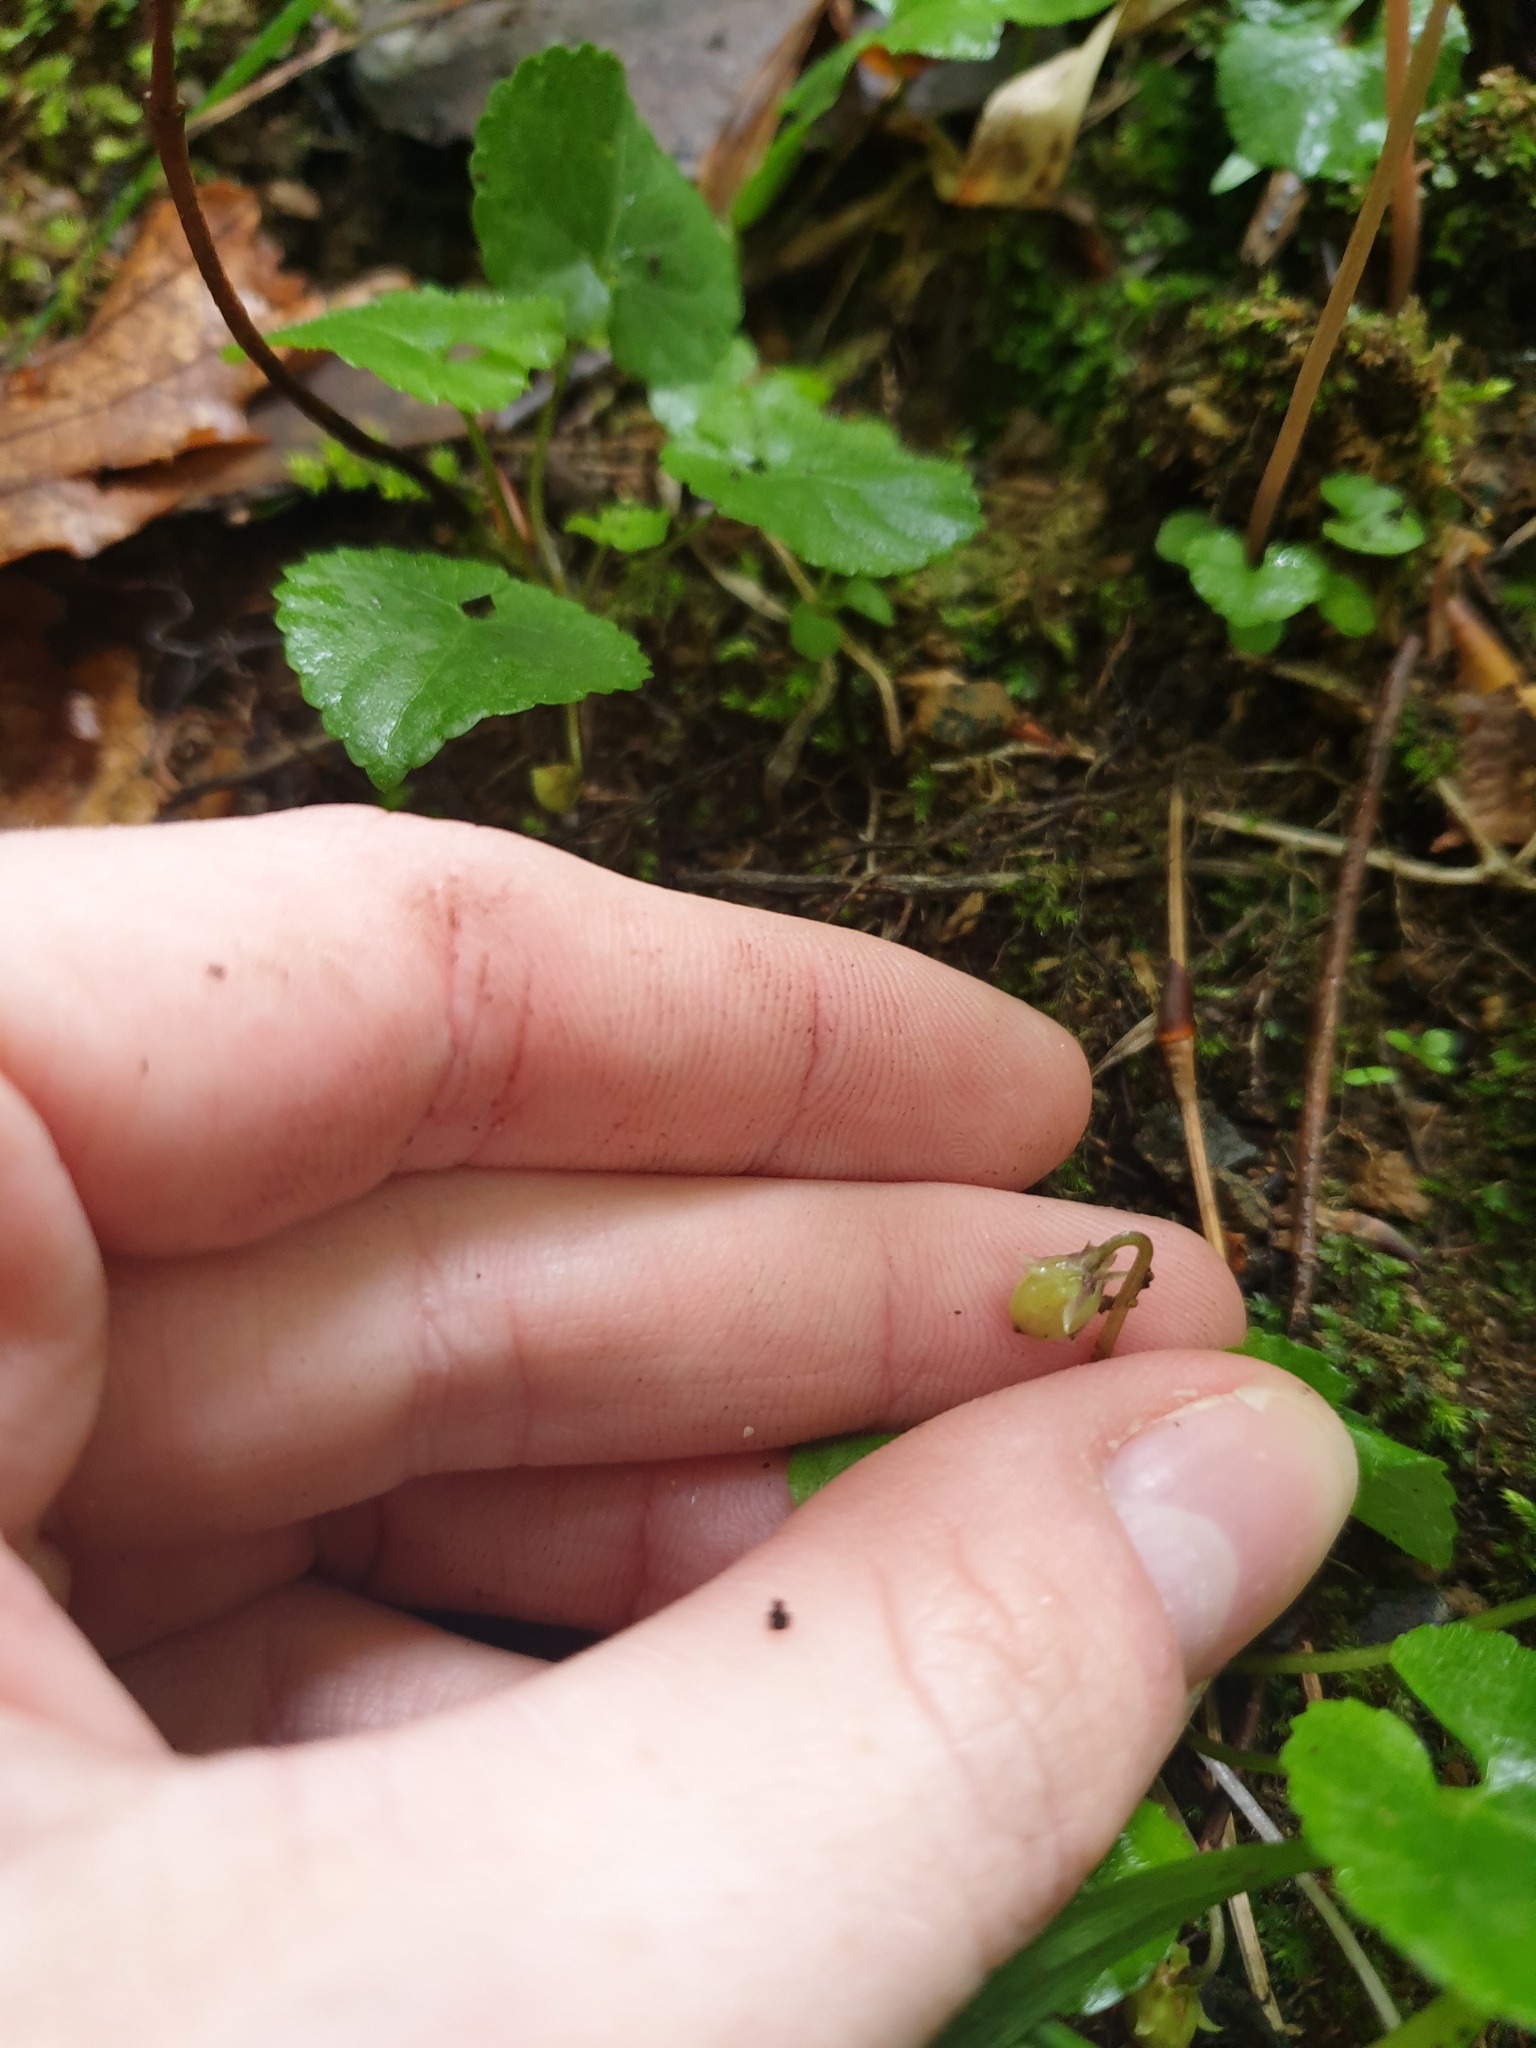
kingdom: Plantae
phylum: Tracheophyta
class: Magnoliopsida
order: Malpighiales
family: Violaceae
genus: Viola
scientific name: Viola incognita
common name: Largeleaf white violet
